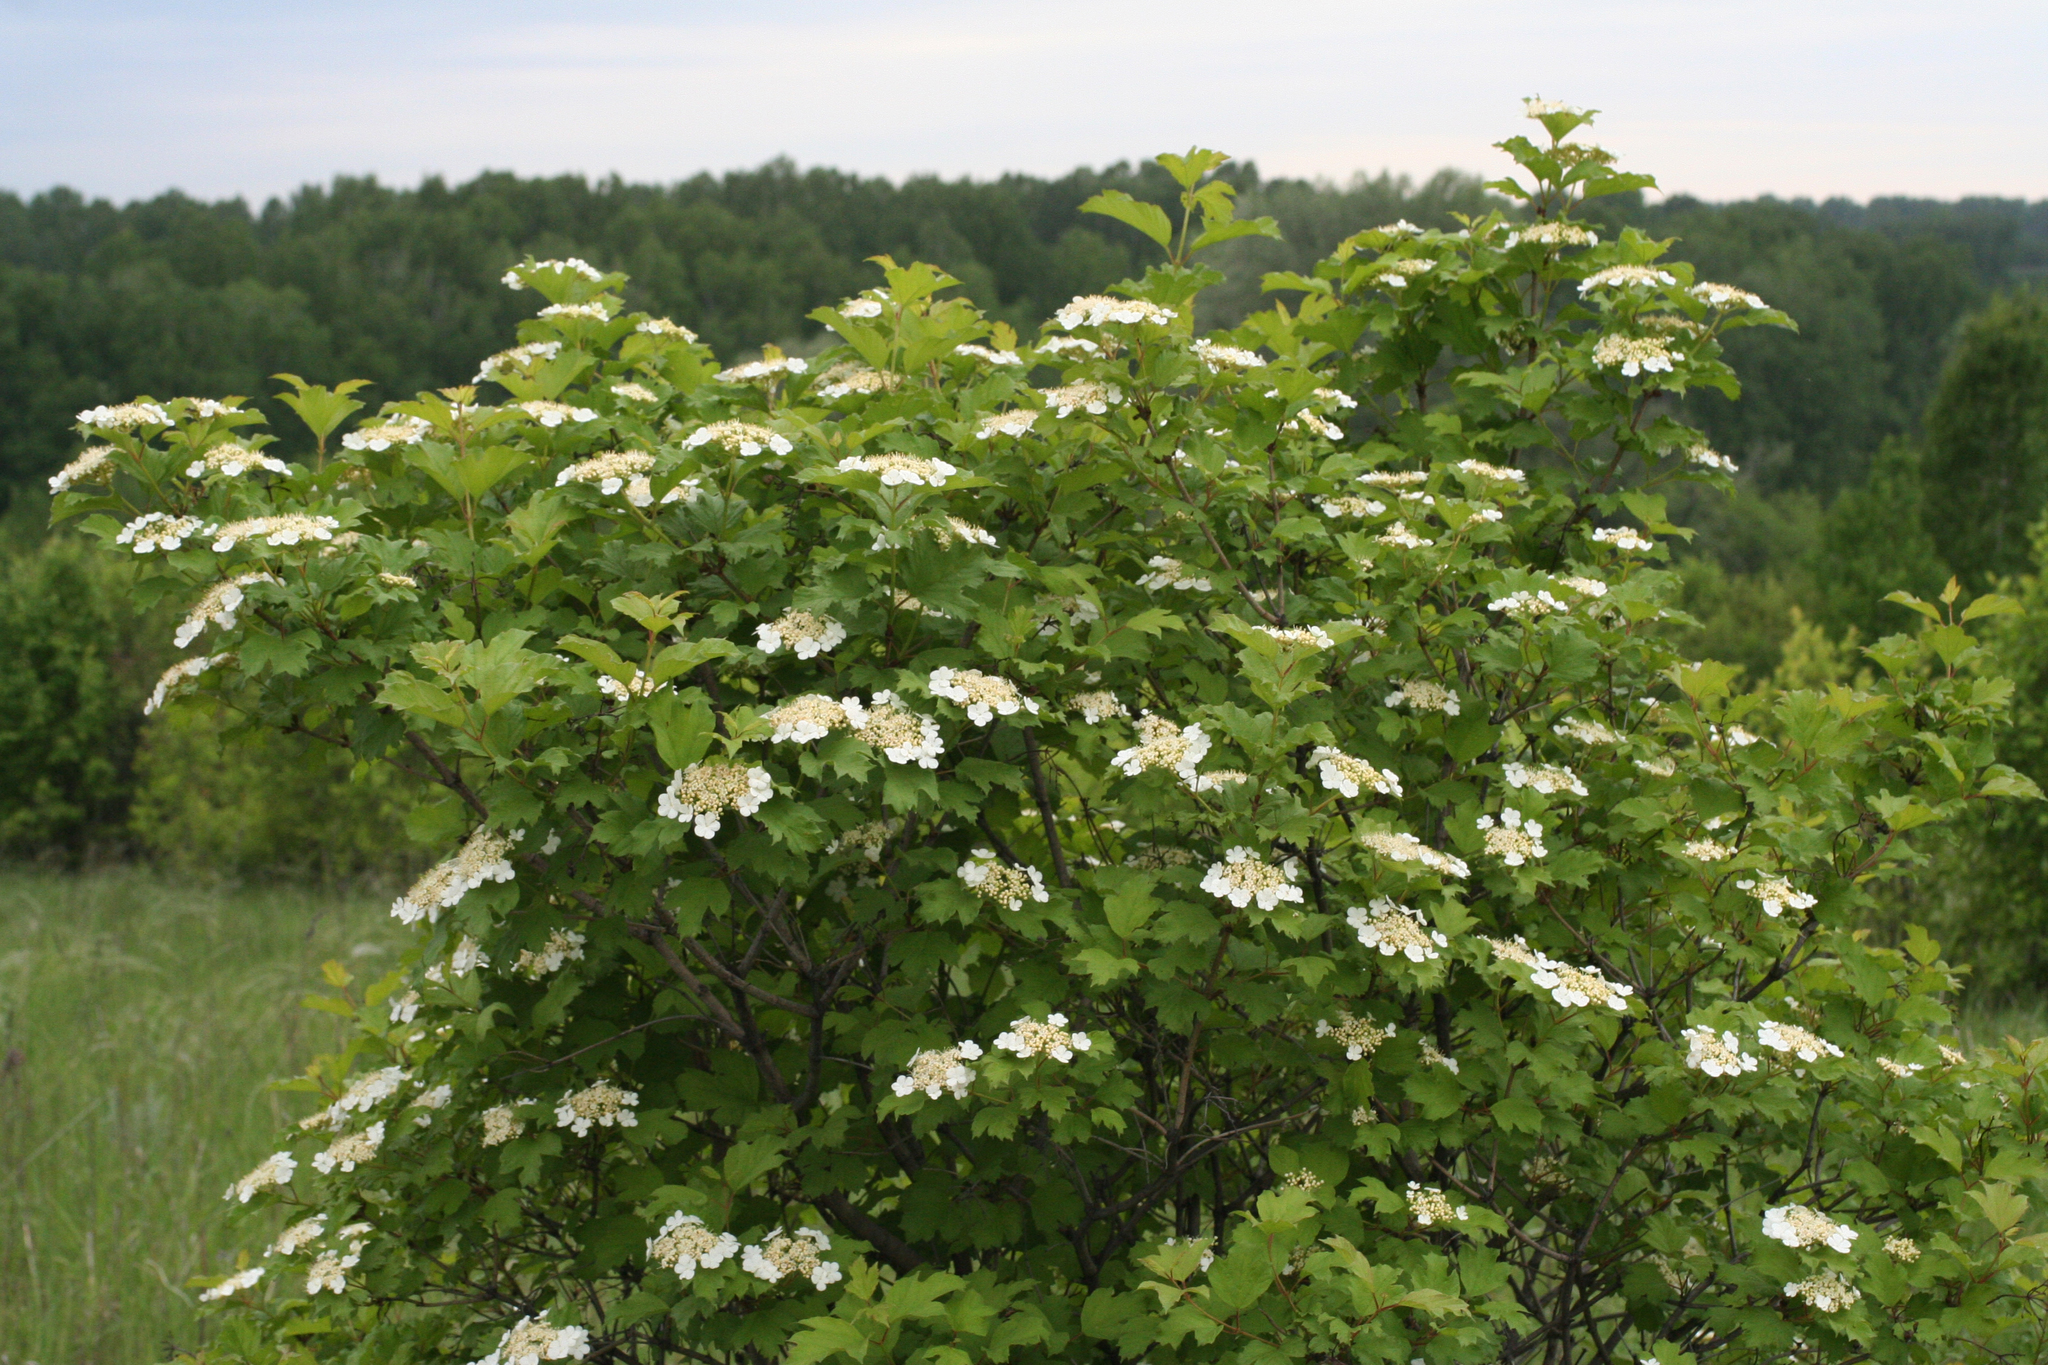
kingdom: Plantae
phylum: Tracheophyta
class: Magnoliopsida
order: Dipsacales
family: Viburnaceae
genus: Viburnum
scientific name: Viburnum opulus
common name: Guelder-rose
